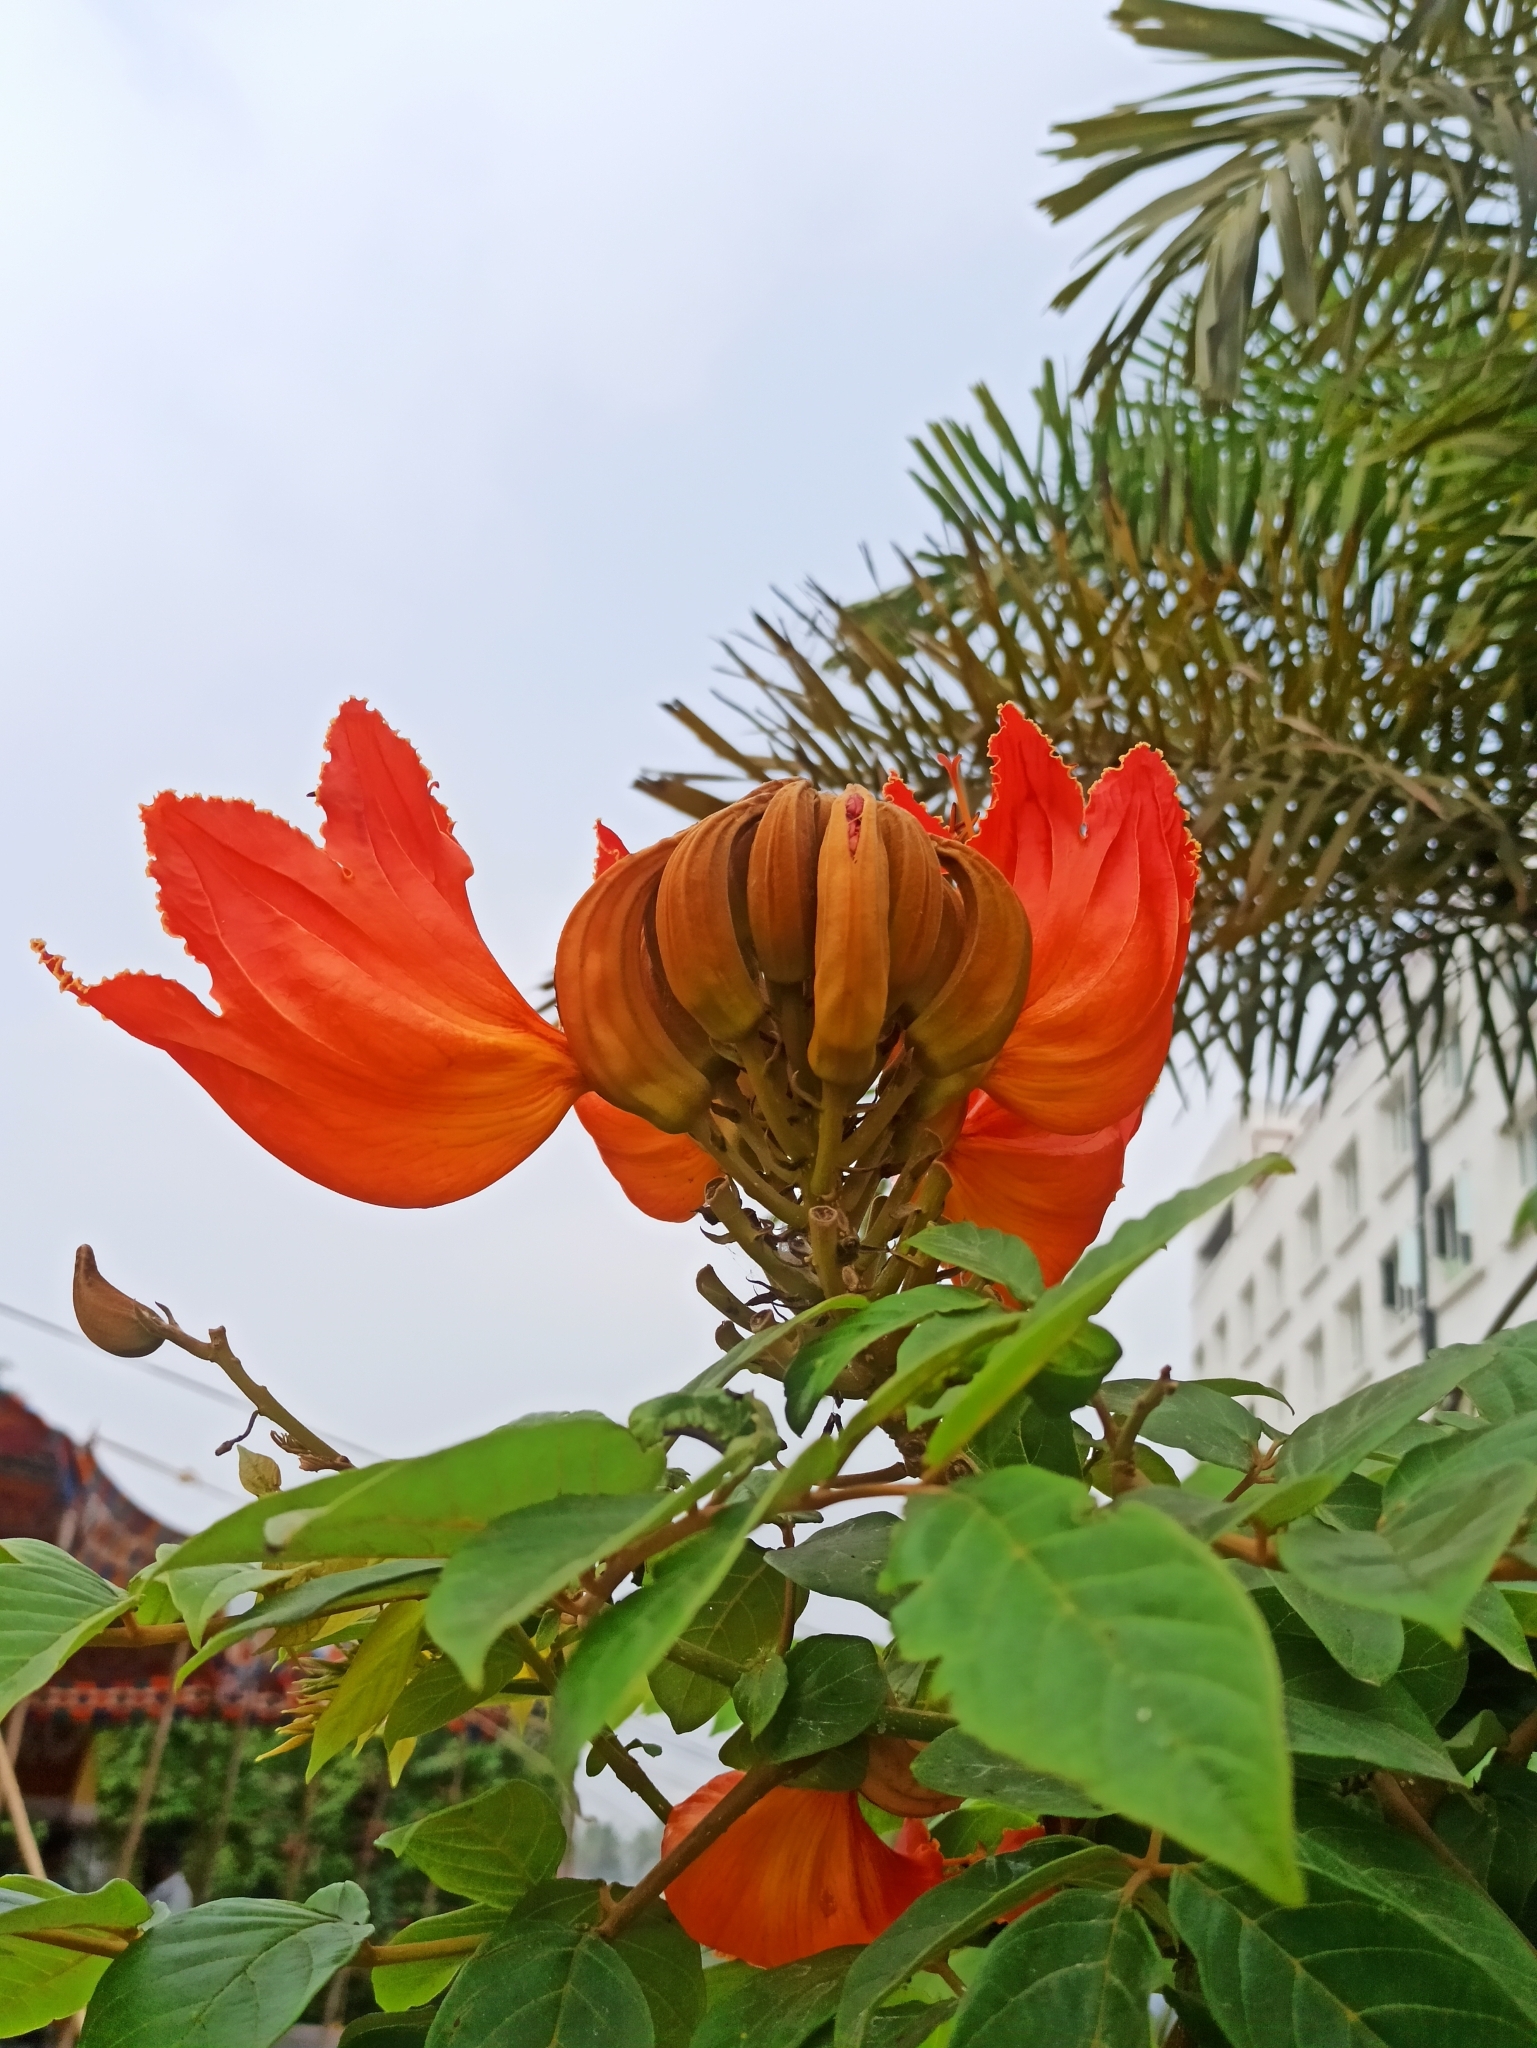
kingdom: Plantae
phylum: Tracheophyta
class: Magnoliopsida
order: Lamiales
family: Bignoniaceae
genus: Spathodea
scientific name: Spathodea campanulata
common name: African tuliptree
